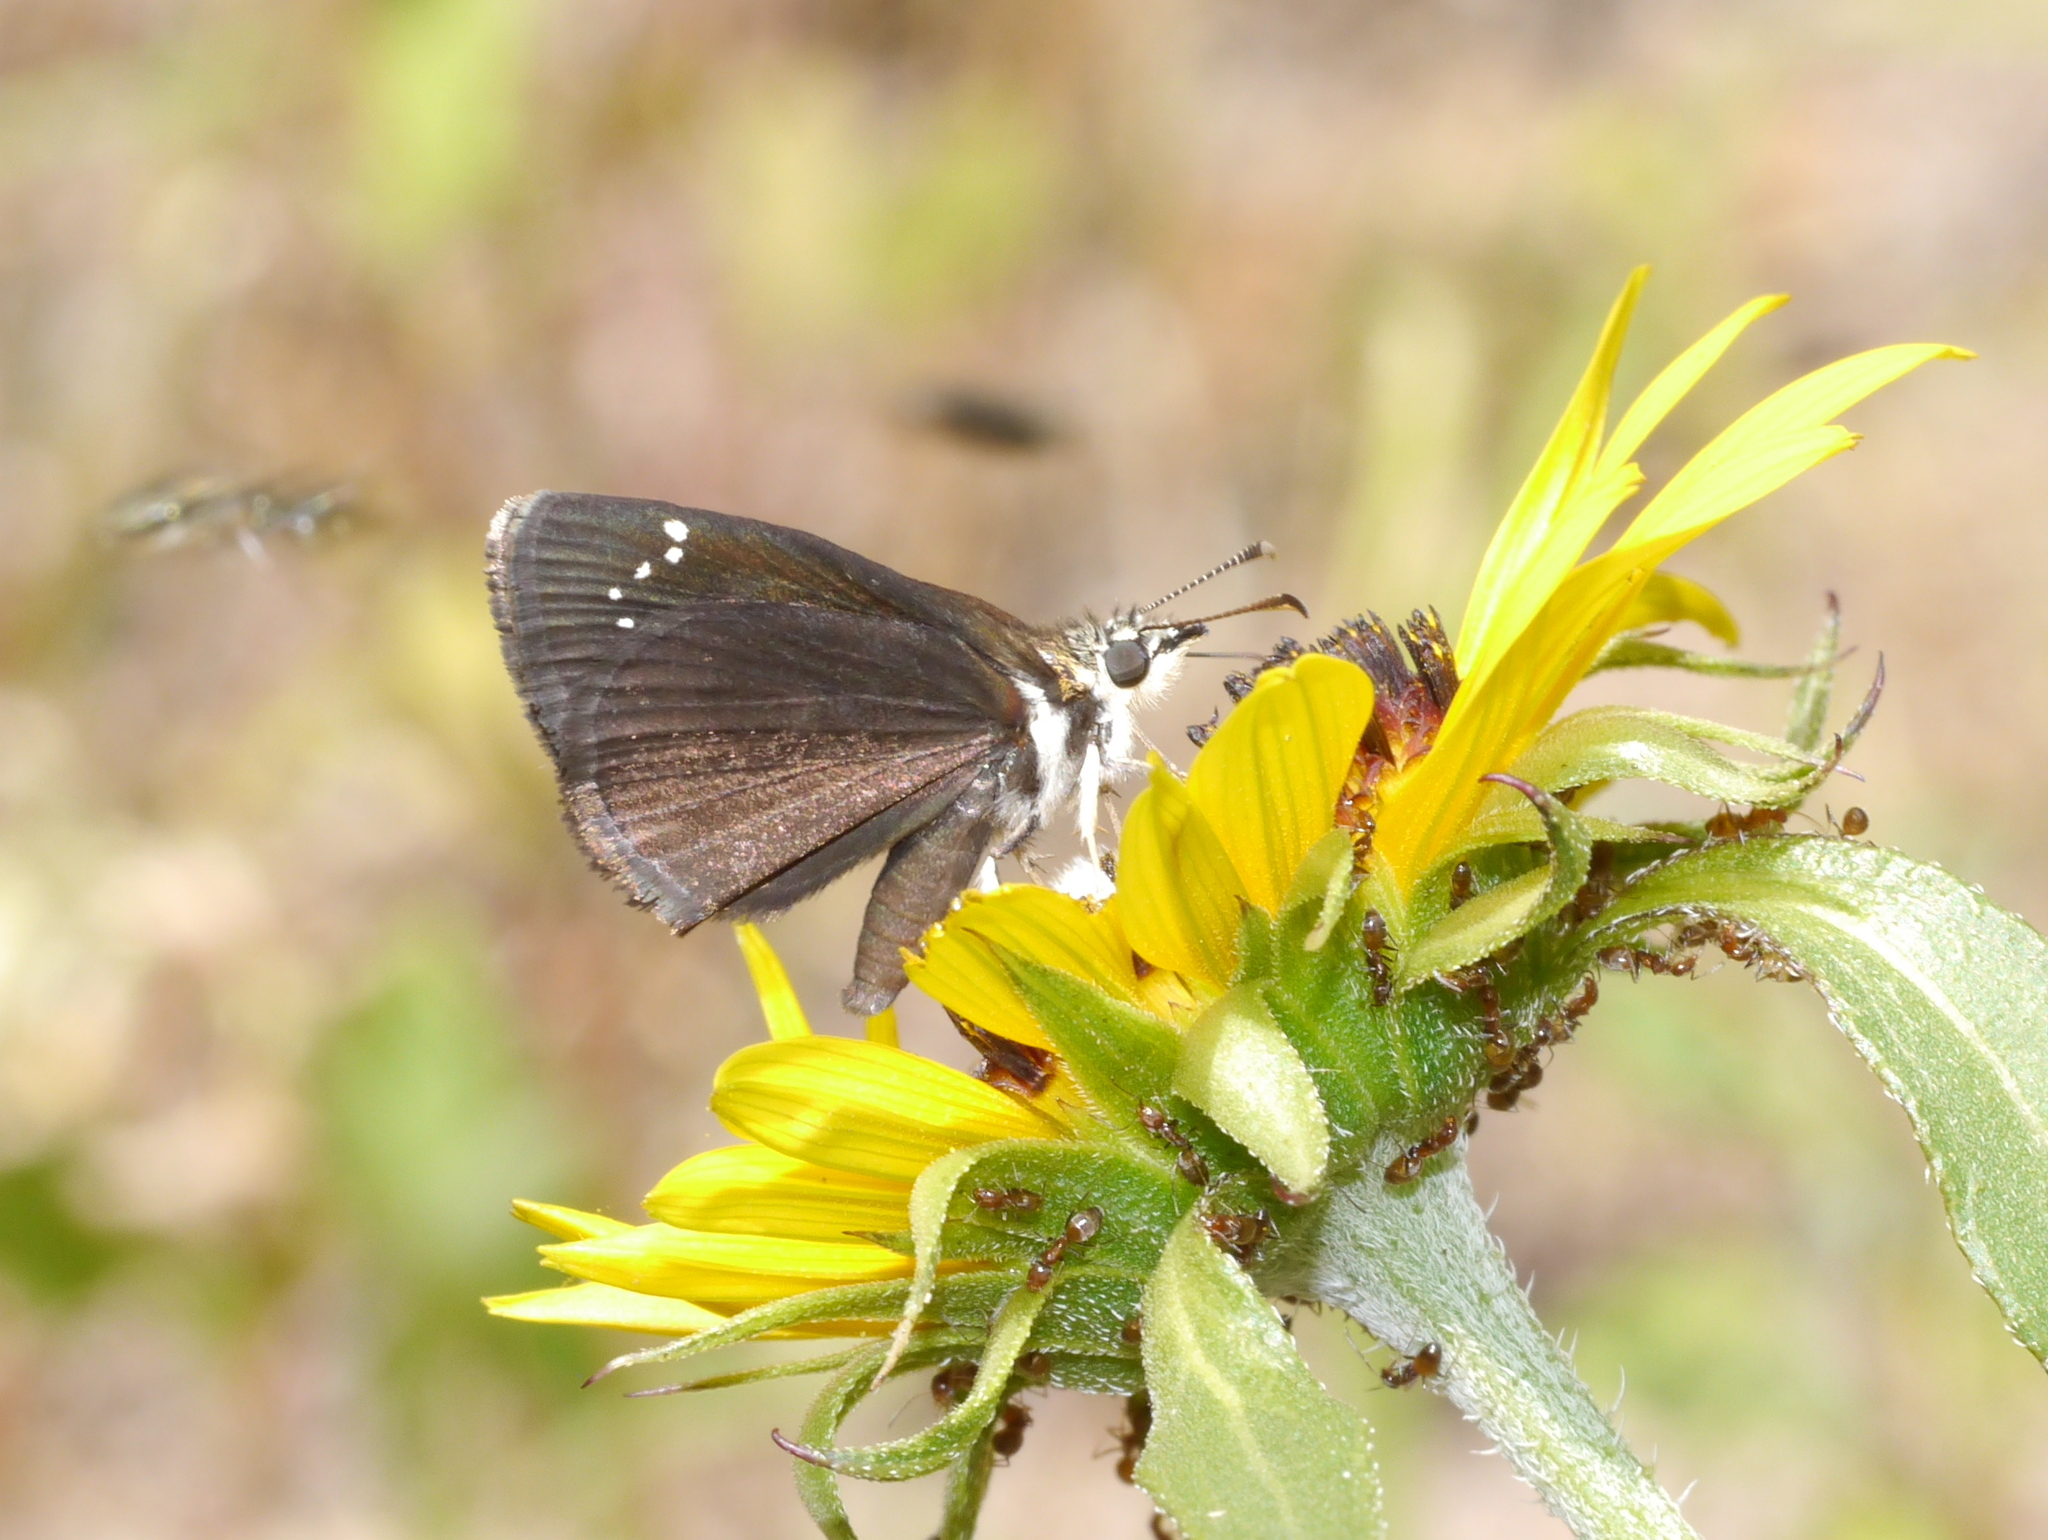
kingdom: Animalia
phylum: Arthropoda
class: Insecta
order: Lepidoptera
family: Hesperiidae
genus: Pholisora
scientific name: Pholisora catullus
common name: Common sootywing
